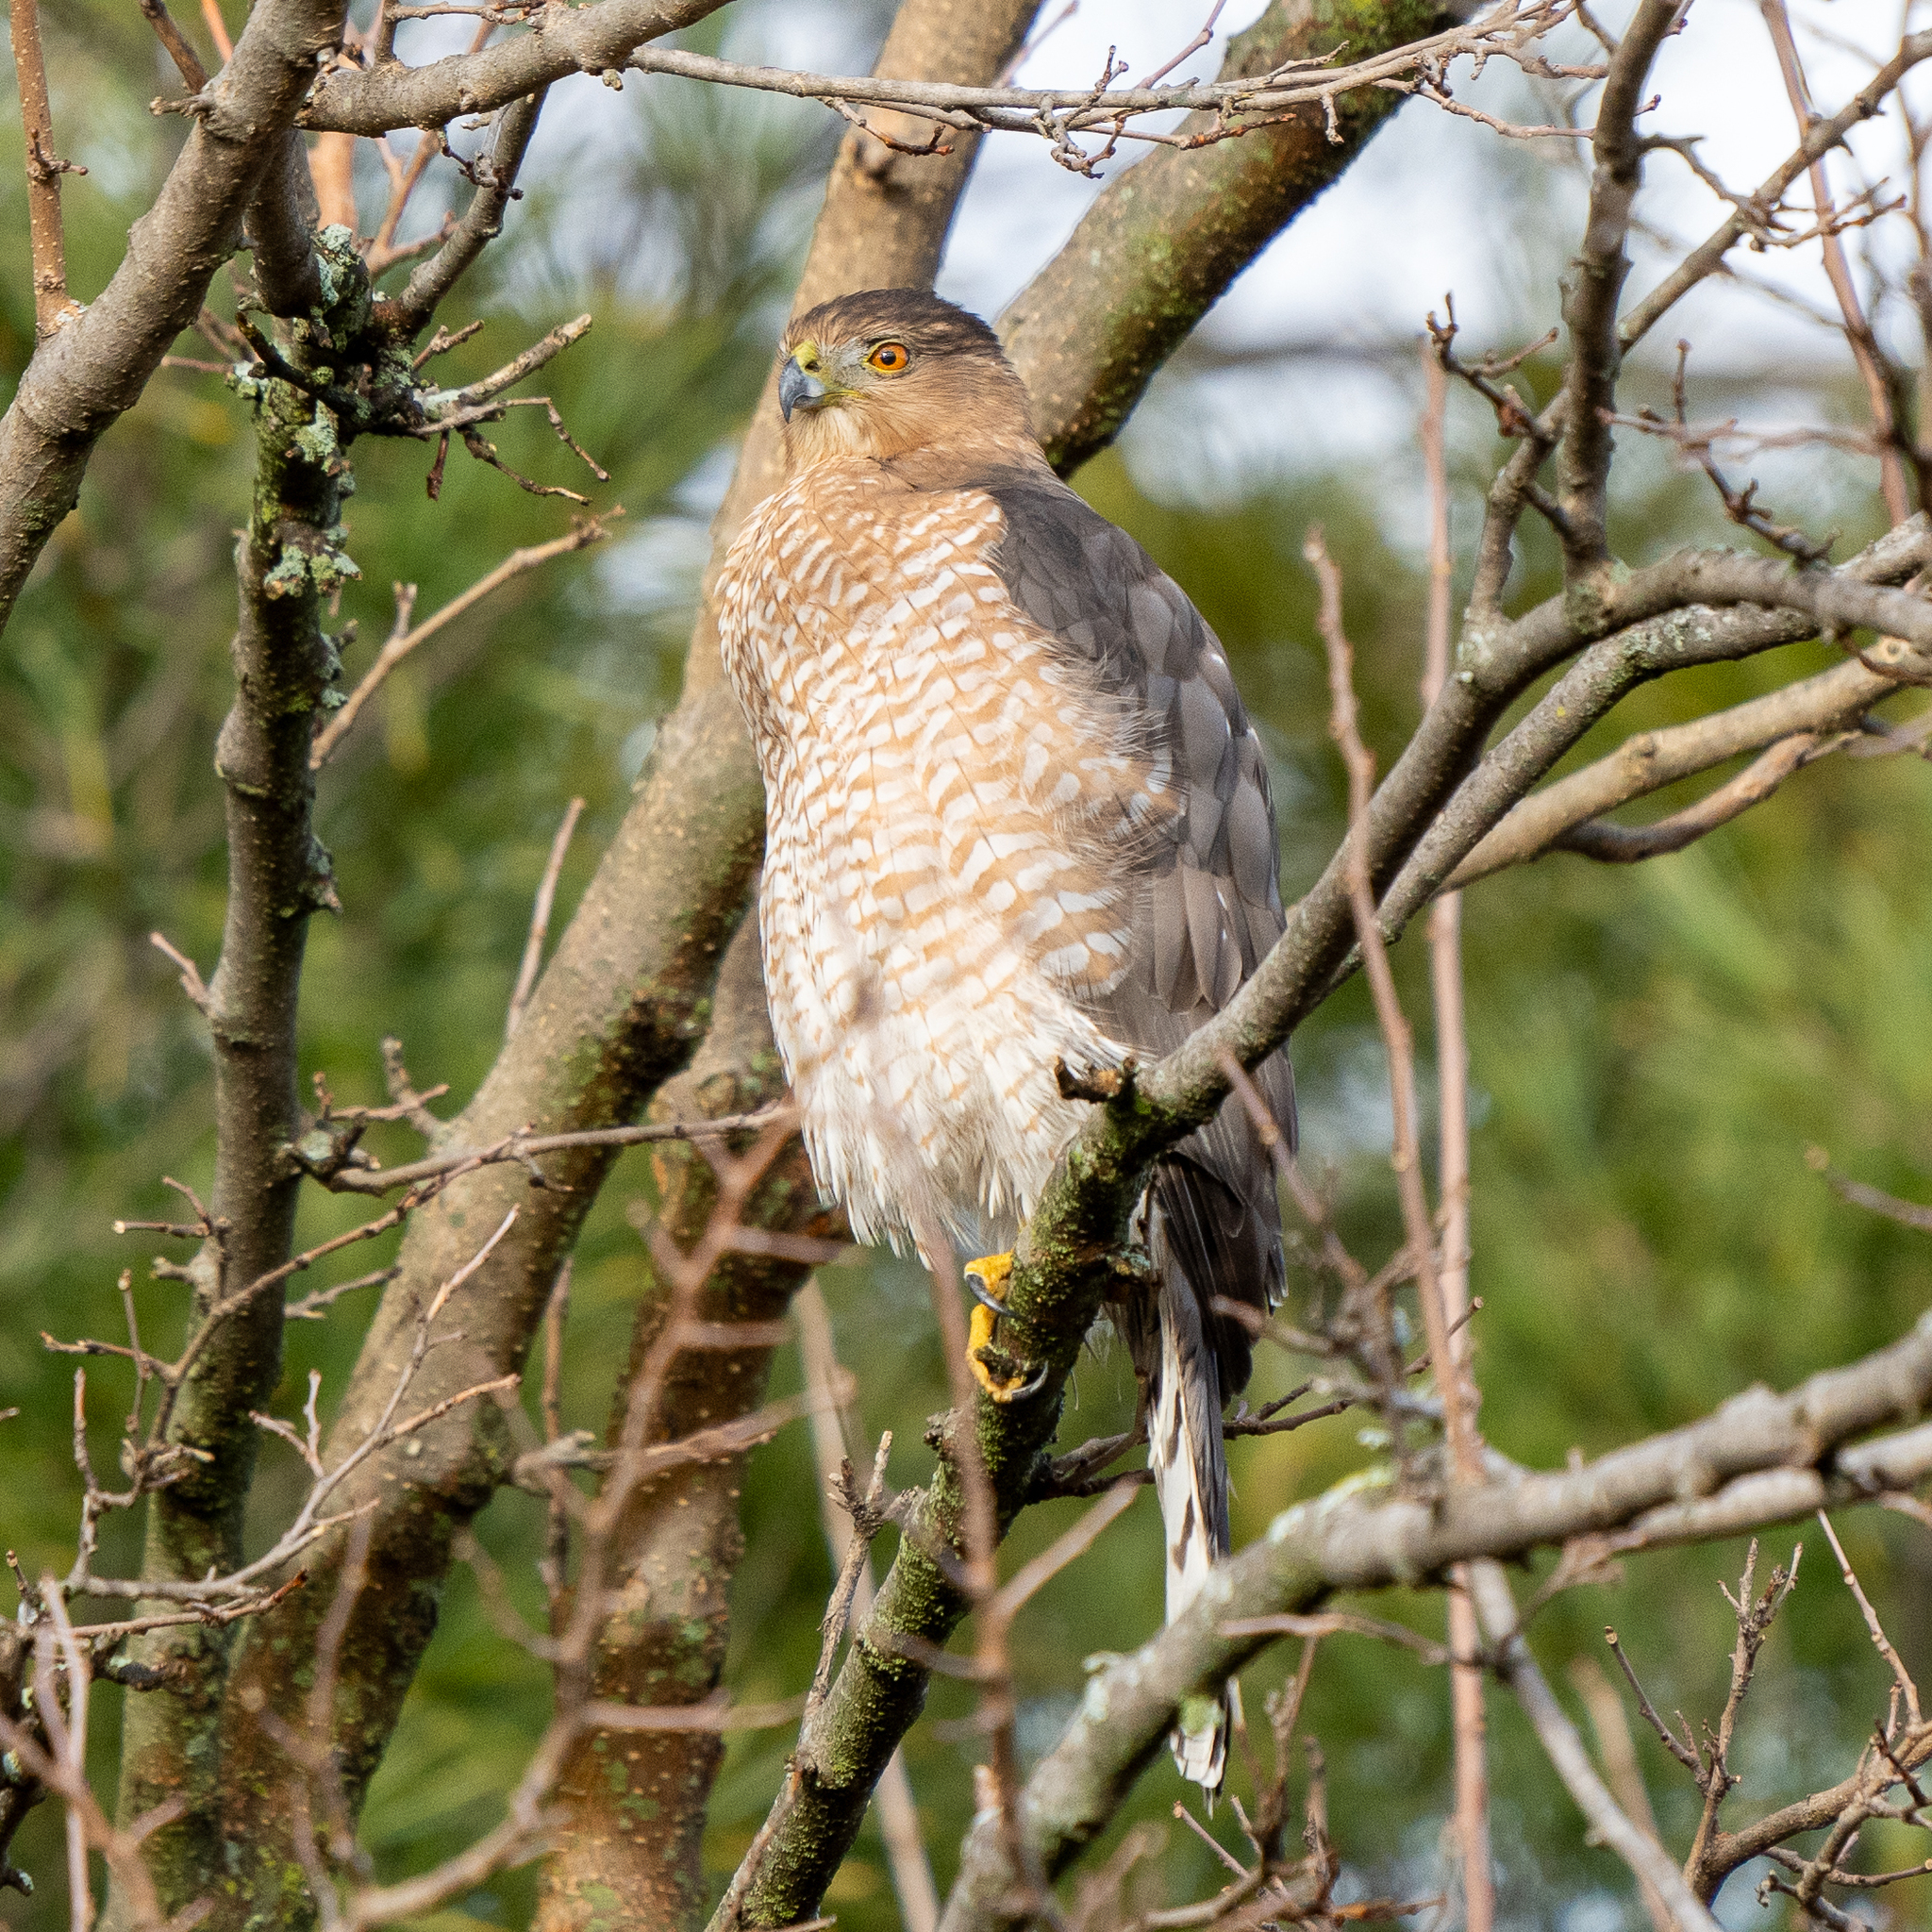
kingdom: Animalia
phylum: Chordata
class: Aves
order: Accipitriformes
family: Accipitridae
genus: Accipiter
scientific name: Accipiter cooperii
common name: Cooper's hawk
